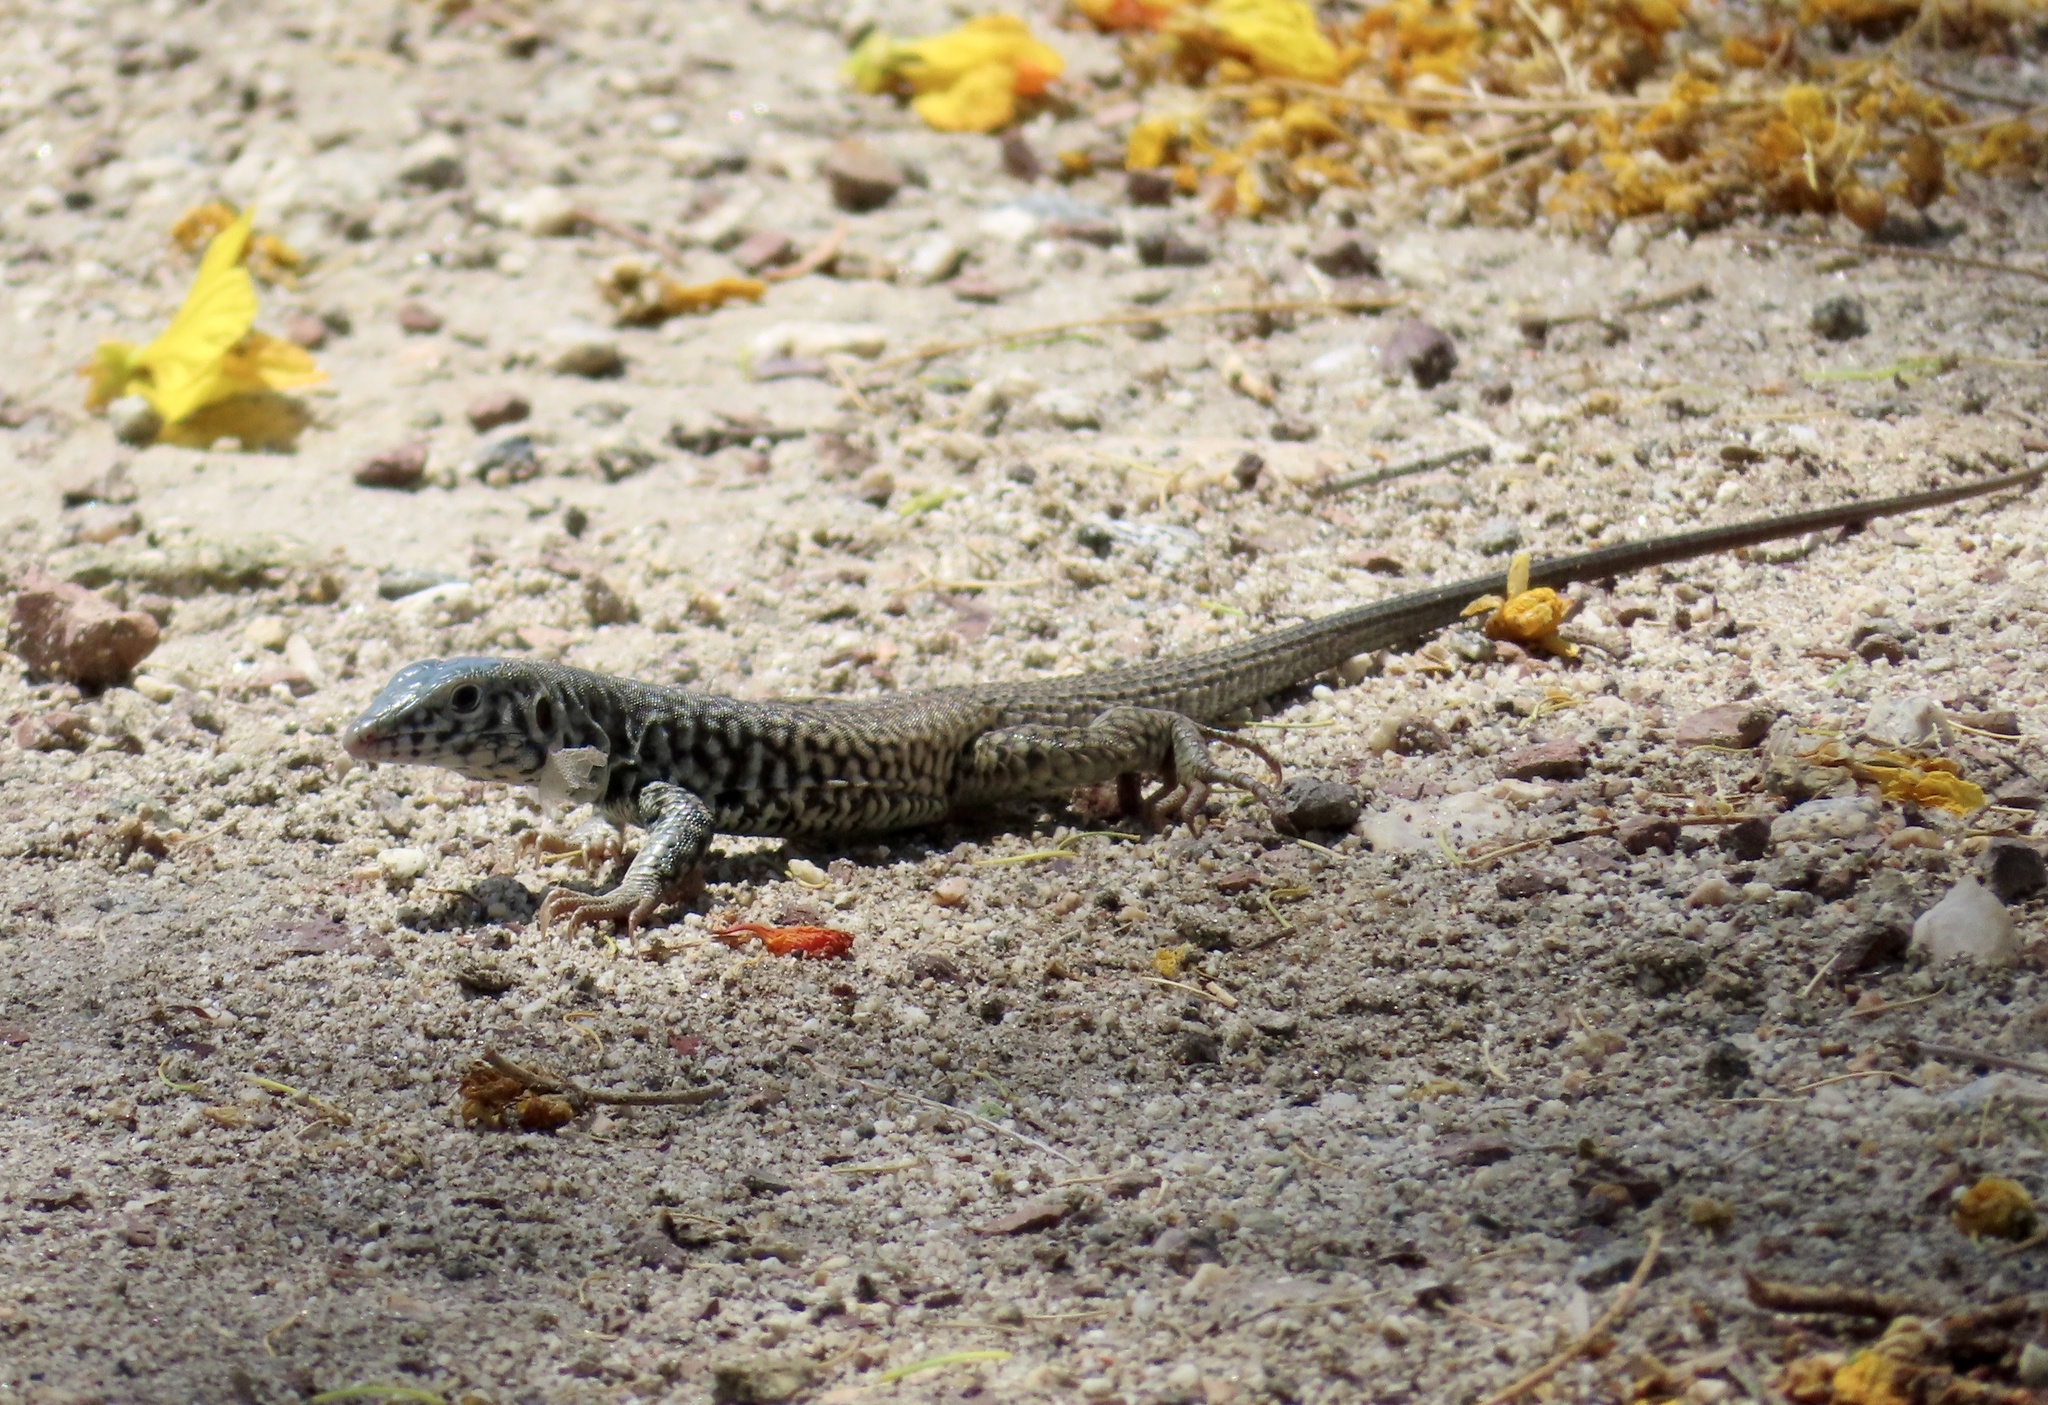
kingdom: Animalia
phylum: Chordata
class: Squamata
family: Teiidae
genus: Aspidoscelis
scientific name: Aspidoscelis tigris
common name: Tiger whiptail
